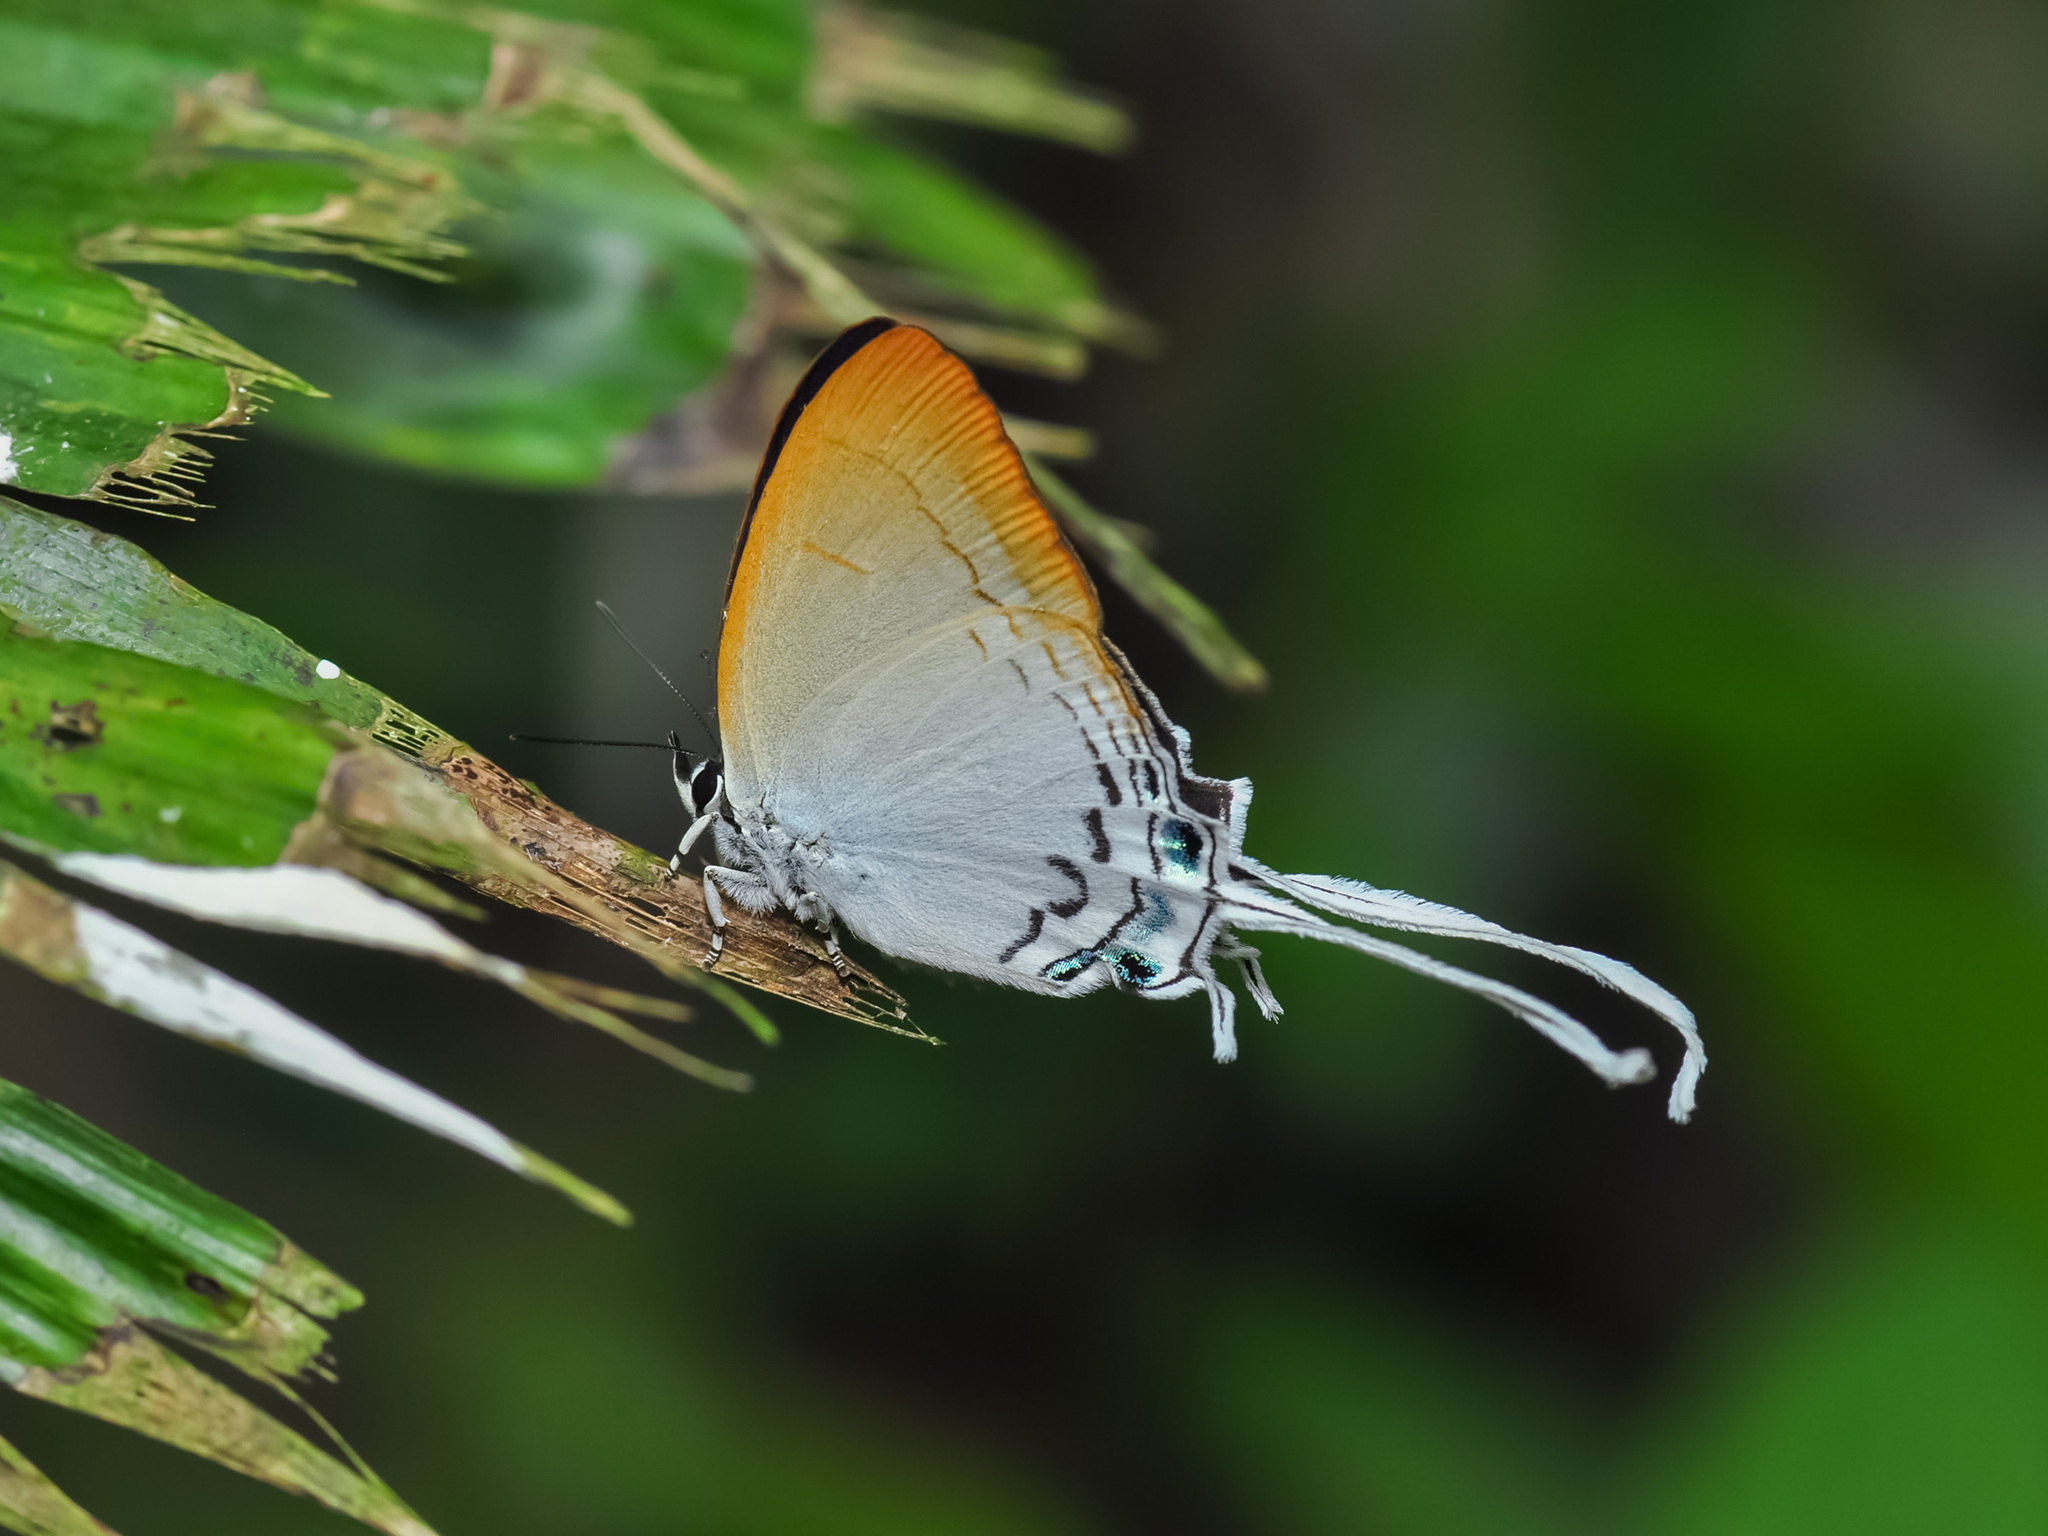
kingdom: Animalia
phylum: Arthropoda
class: Insecta
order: Lepidoptera
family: Lycaenidae
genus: Cheritra
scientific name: Cheritra freja
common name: Common imperial
